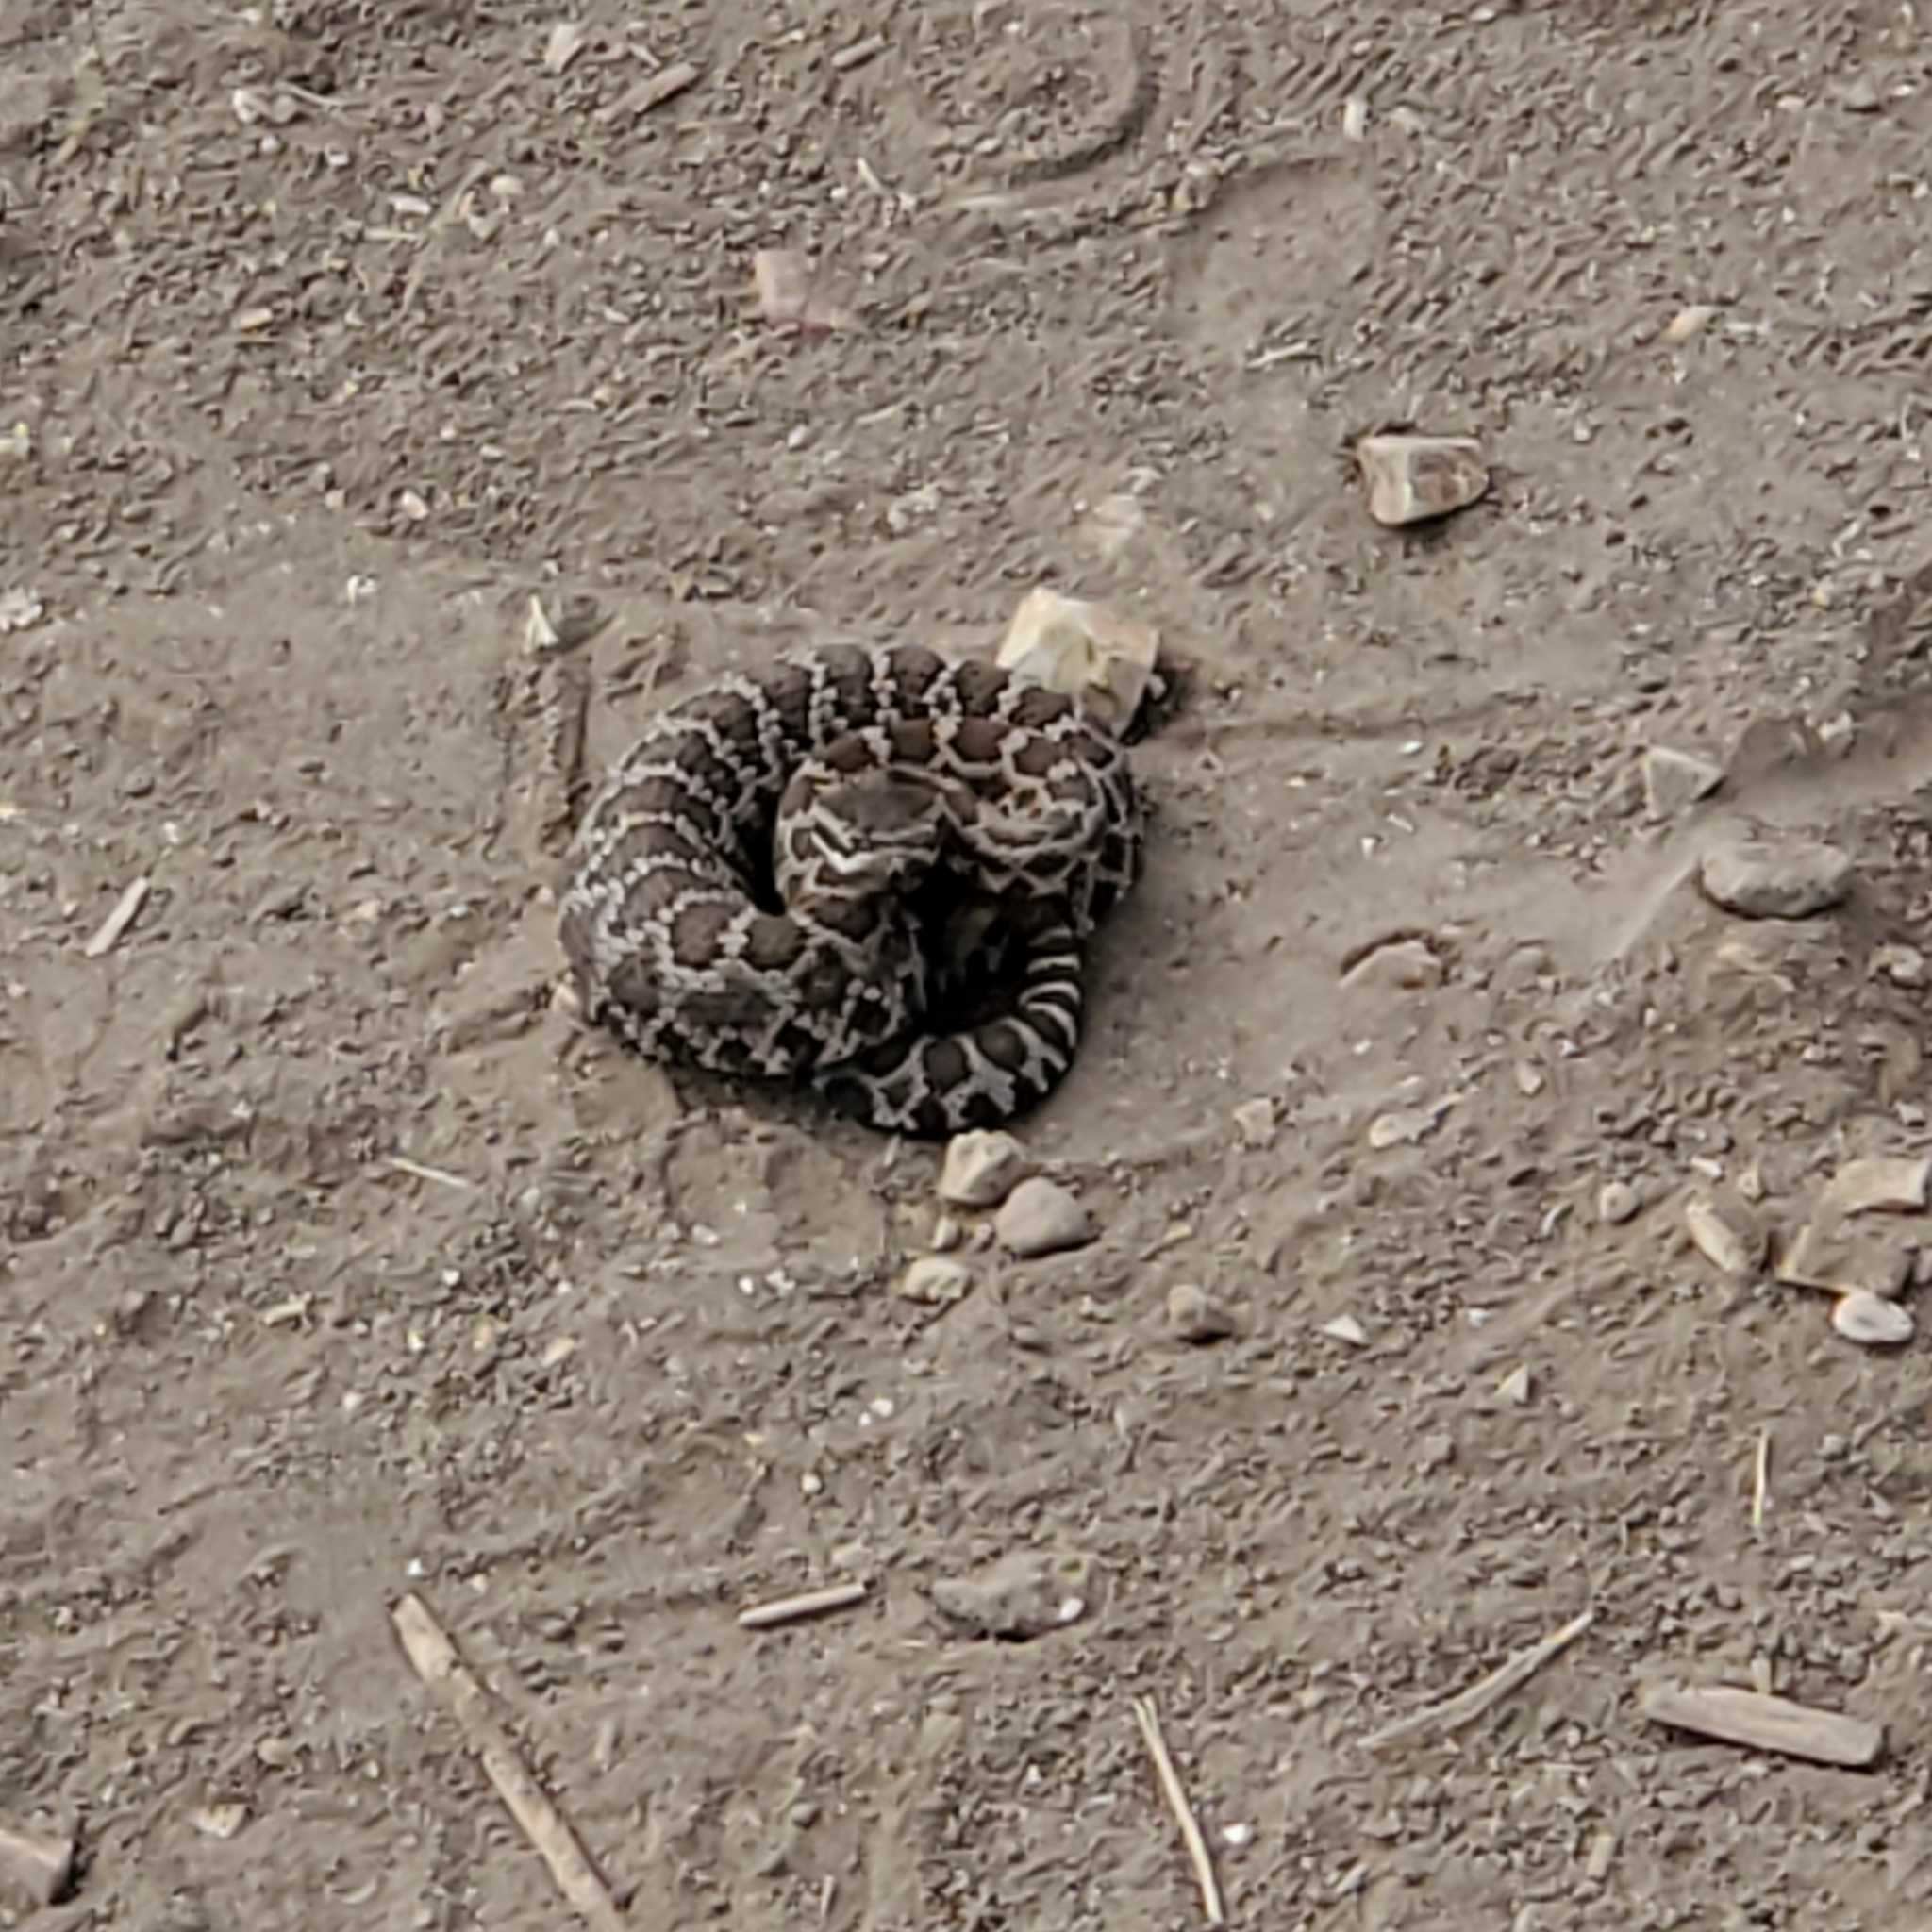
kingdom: Animalia
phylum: Chordata
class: Squamata
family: Viperidae
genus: Crotalus
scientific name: Crotalus oreganus
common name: Abyssus
